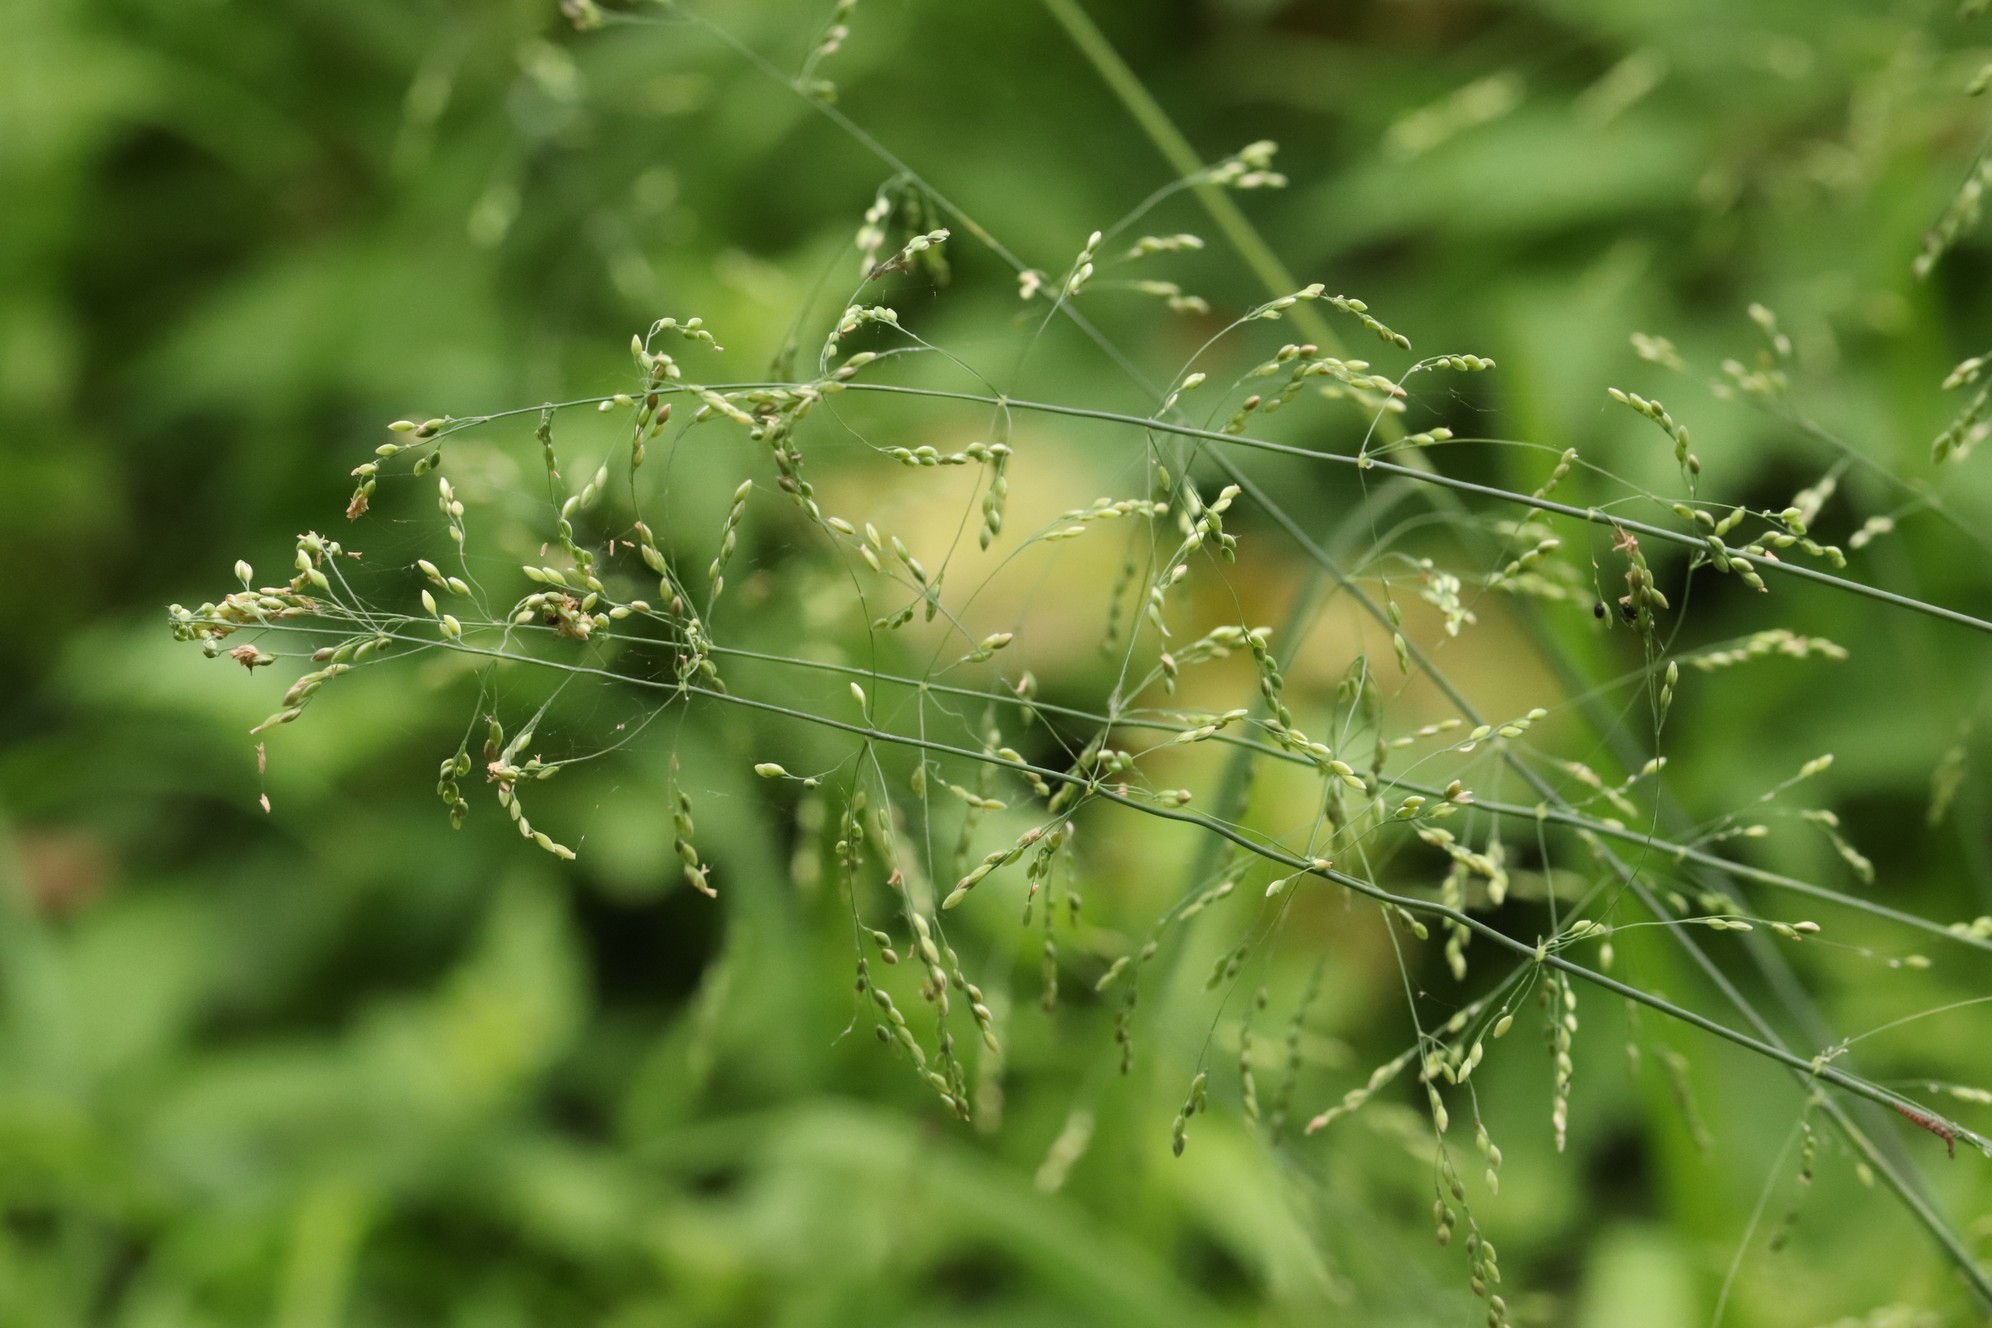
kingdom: Plantae
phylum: Tracheophyta
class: Liliopsida
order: Poales
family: Poaceae
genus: Milium
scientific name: Milium effusum
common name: Wood millet
